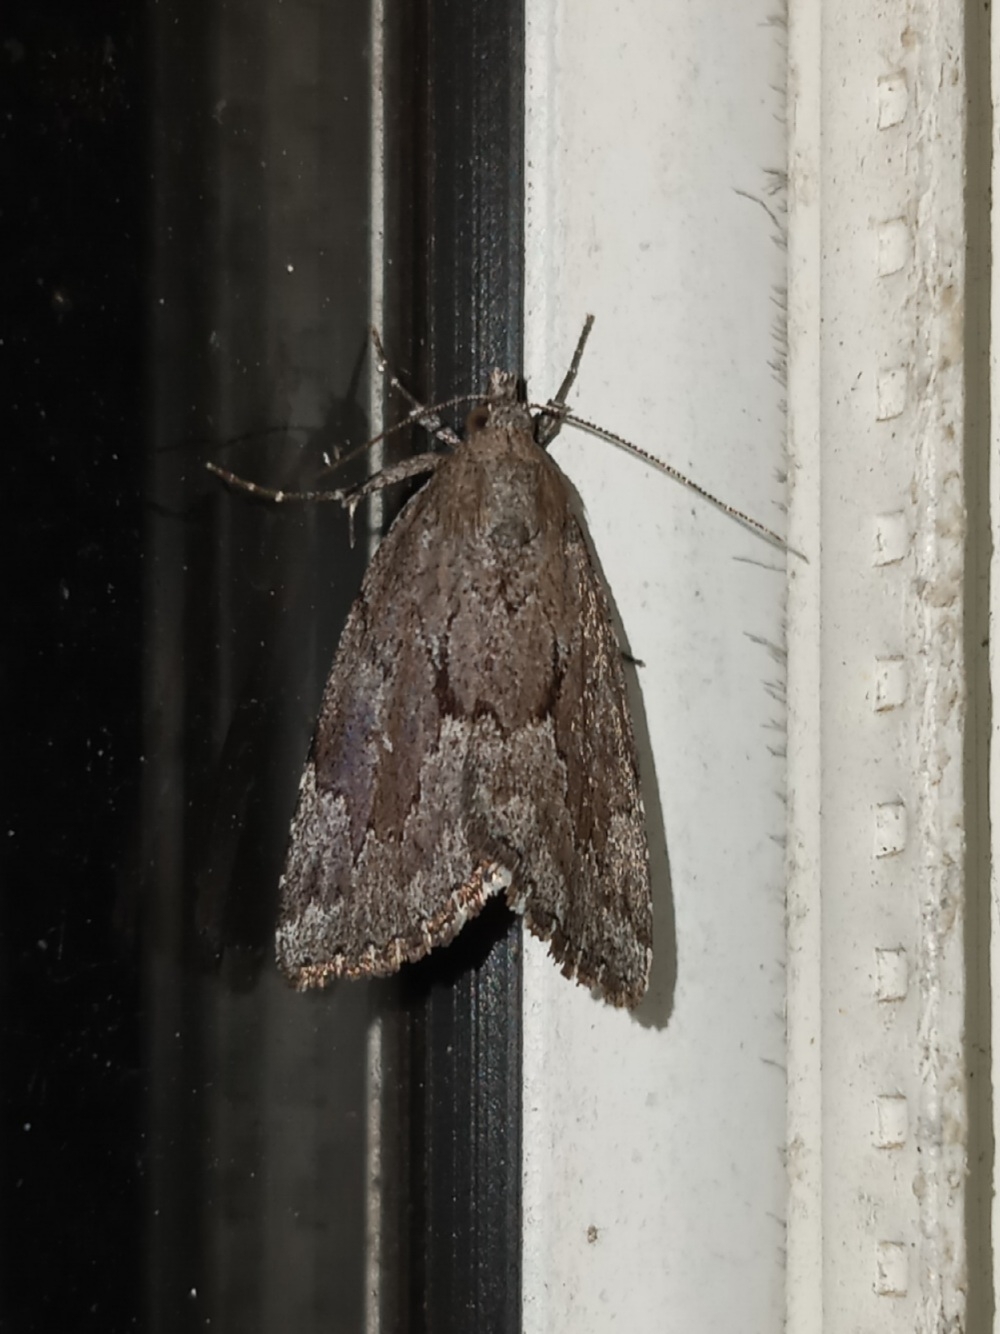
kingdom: Animalia
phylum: Arthropoda
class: Insecta
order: Lepidoptera
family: Erebidae
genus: Cutina
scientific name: Cutina albopunctella
